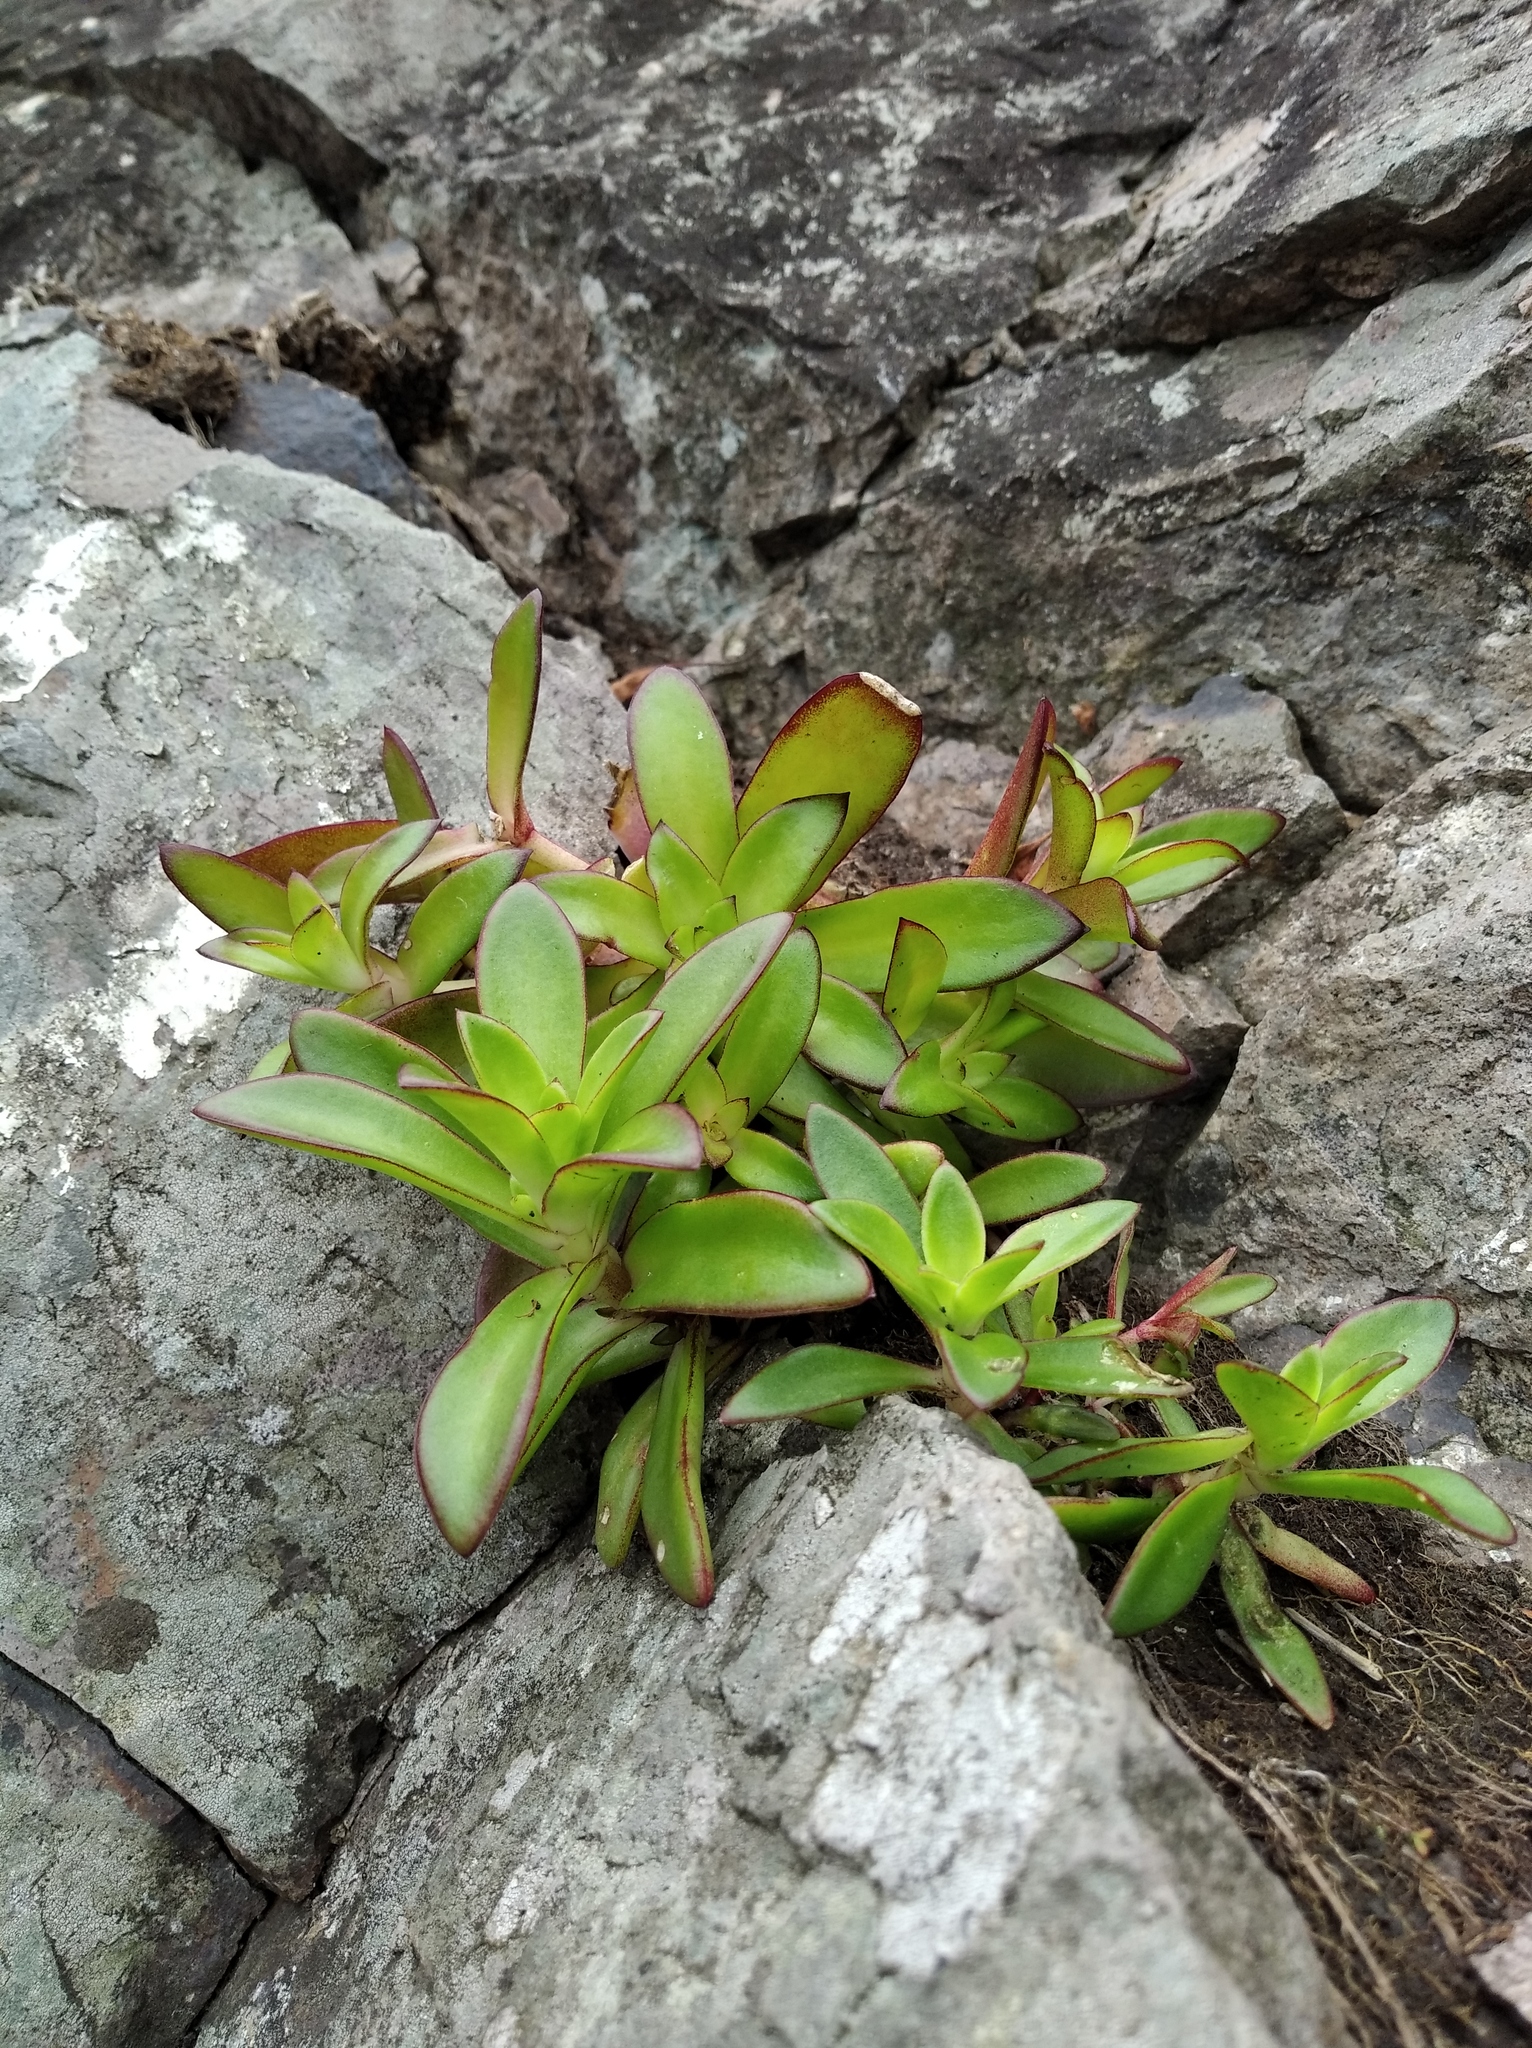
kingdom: Plantae
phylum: Tracheophyta
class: Magnoliopsida
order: Saxifragales
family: Crassulaceae
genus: Orostachys
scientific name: Orostachys maximowiczii
